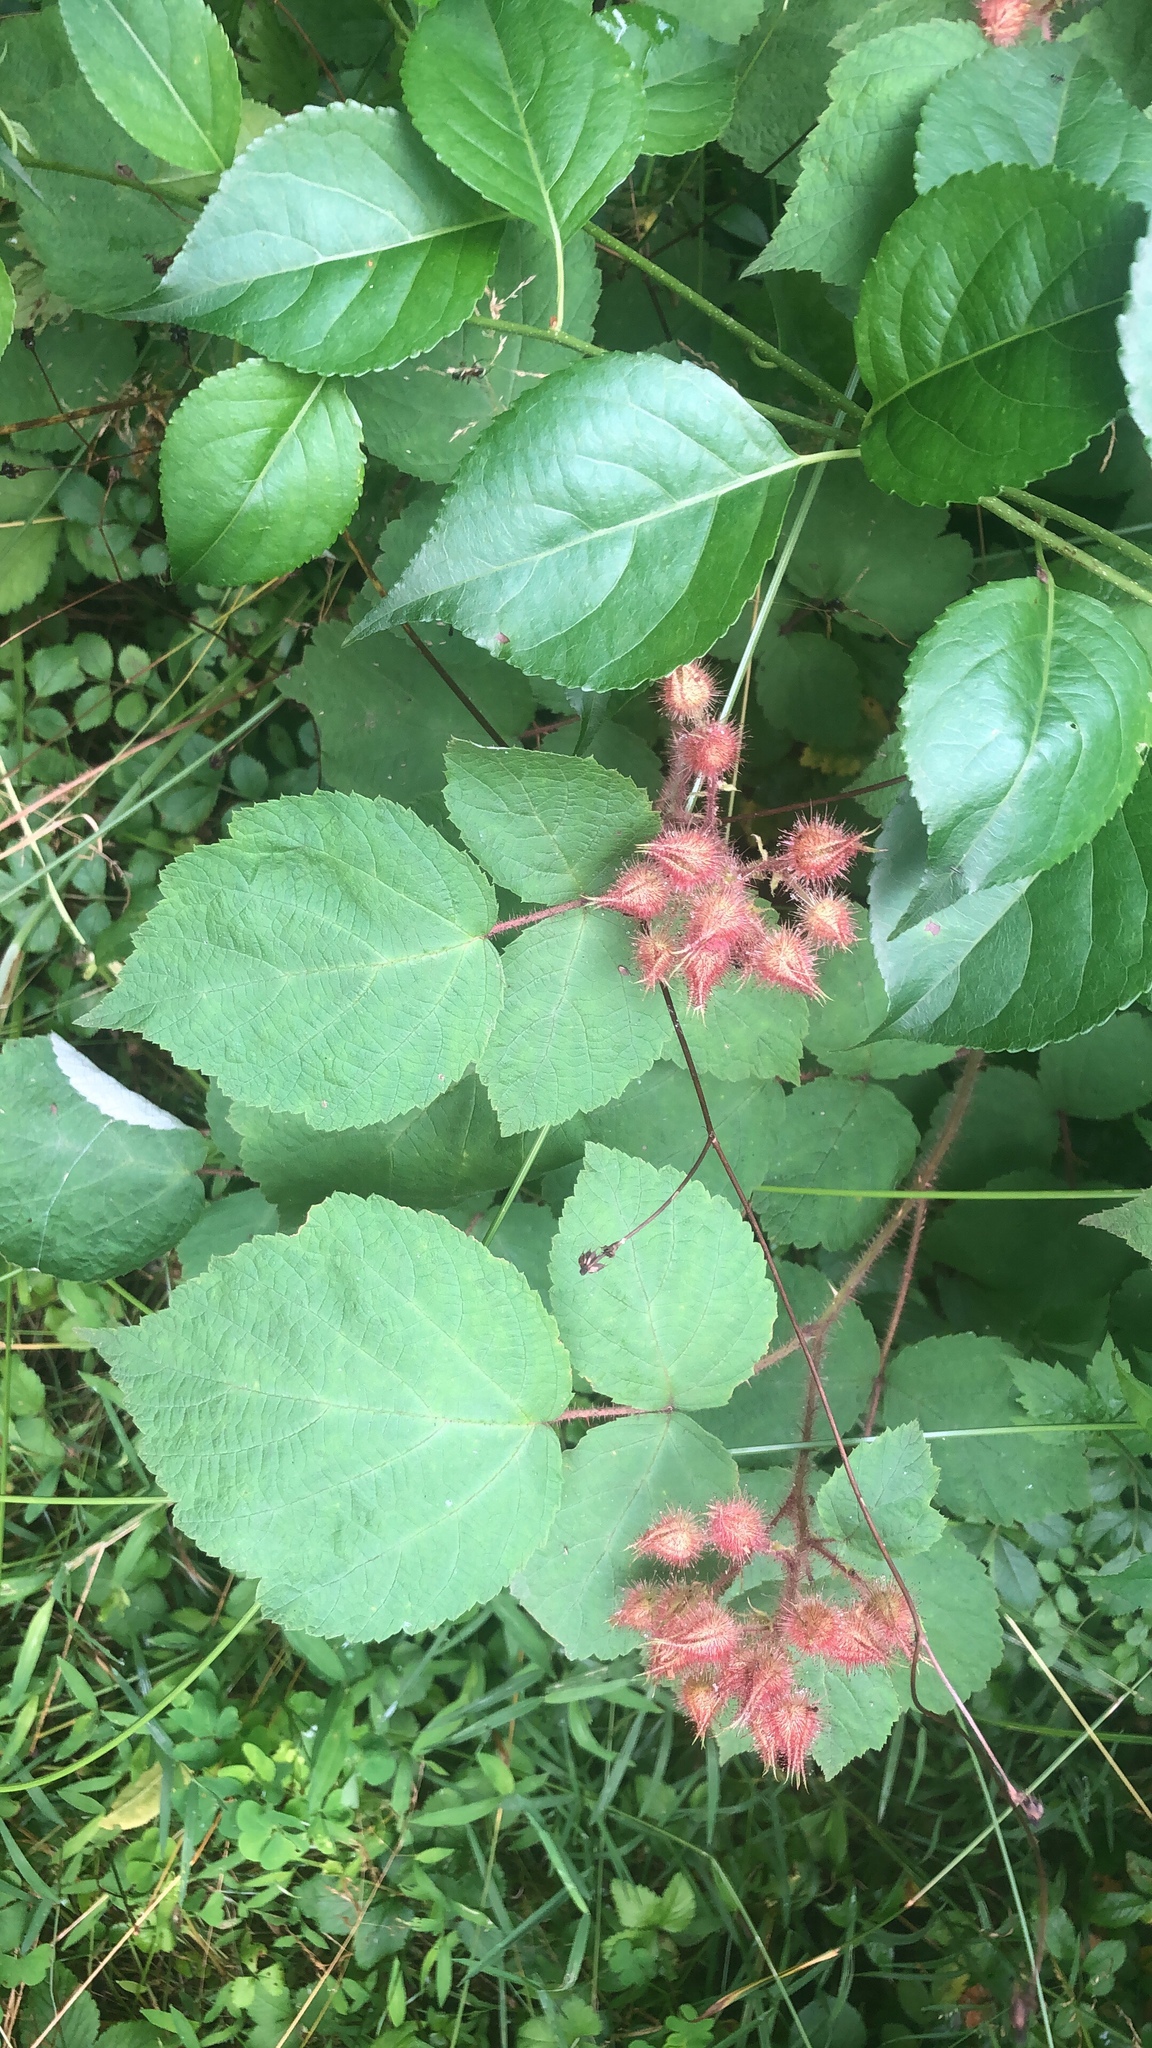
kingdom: Plantae
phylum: Tracheophyta
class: Magnoliopsida
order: Rosales
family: Rosaceae
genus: Rosa
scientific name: Rosa multiflora
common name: Multiflora rose
